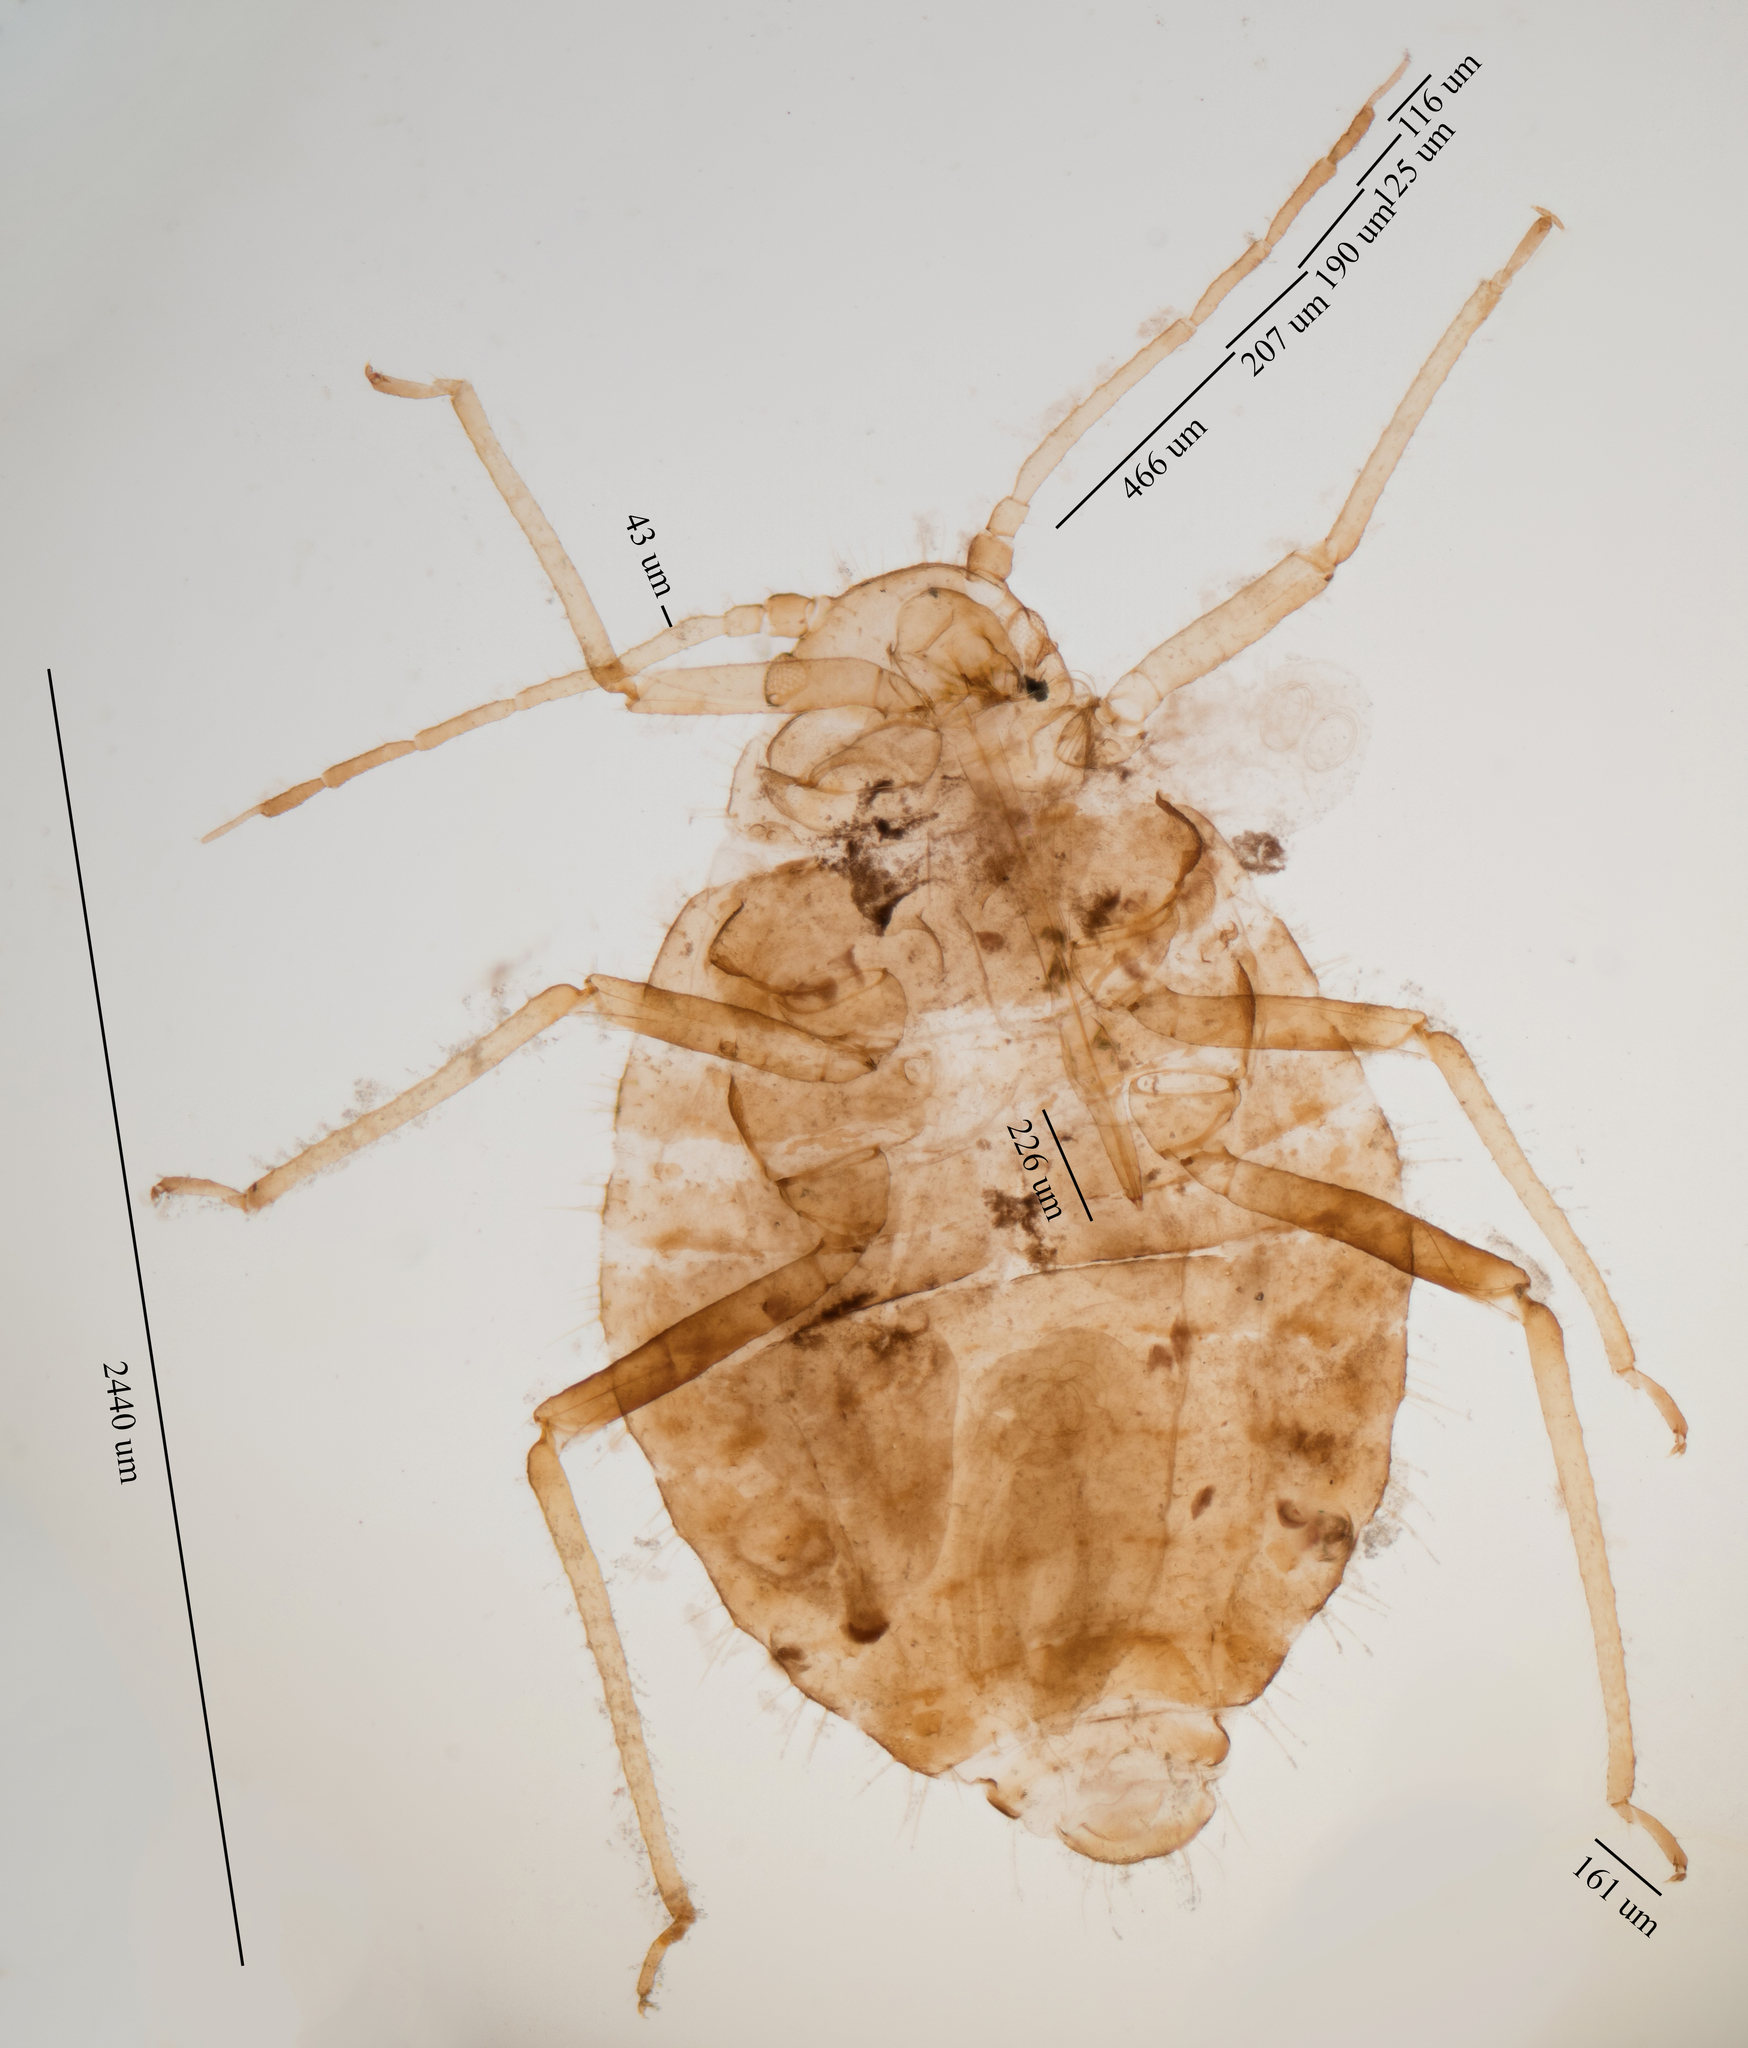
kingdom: Animalia
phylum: Arthropoda
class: Insecta
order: Hemiptera
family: Aphididae
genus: Chaitophorus
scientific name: Chaitophorus macrostachyae
